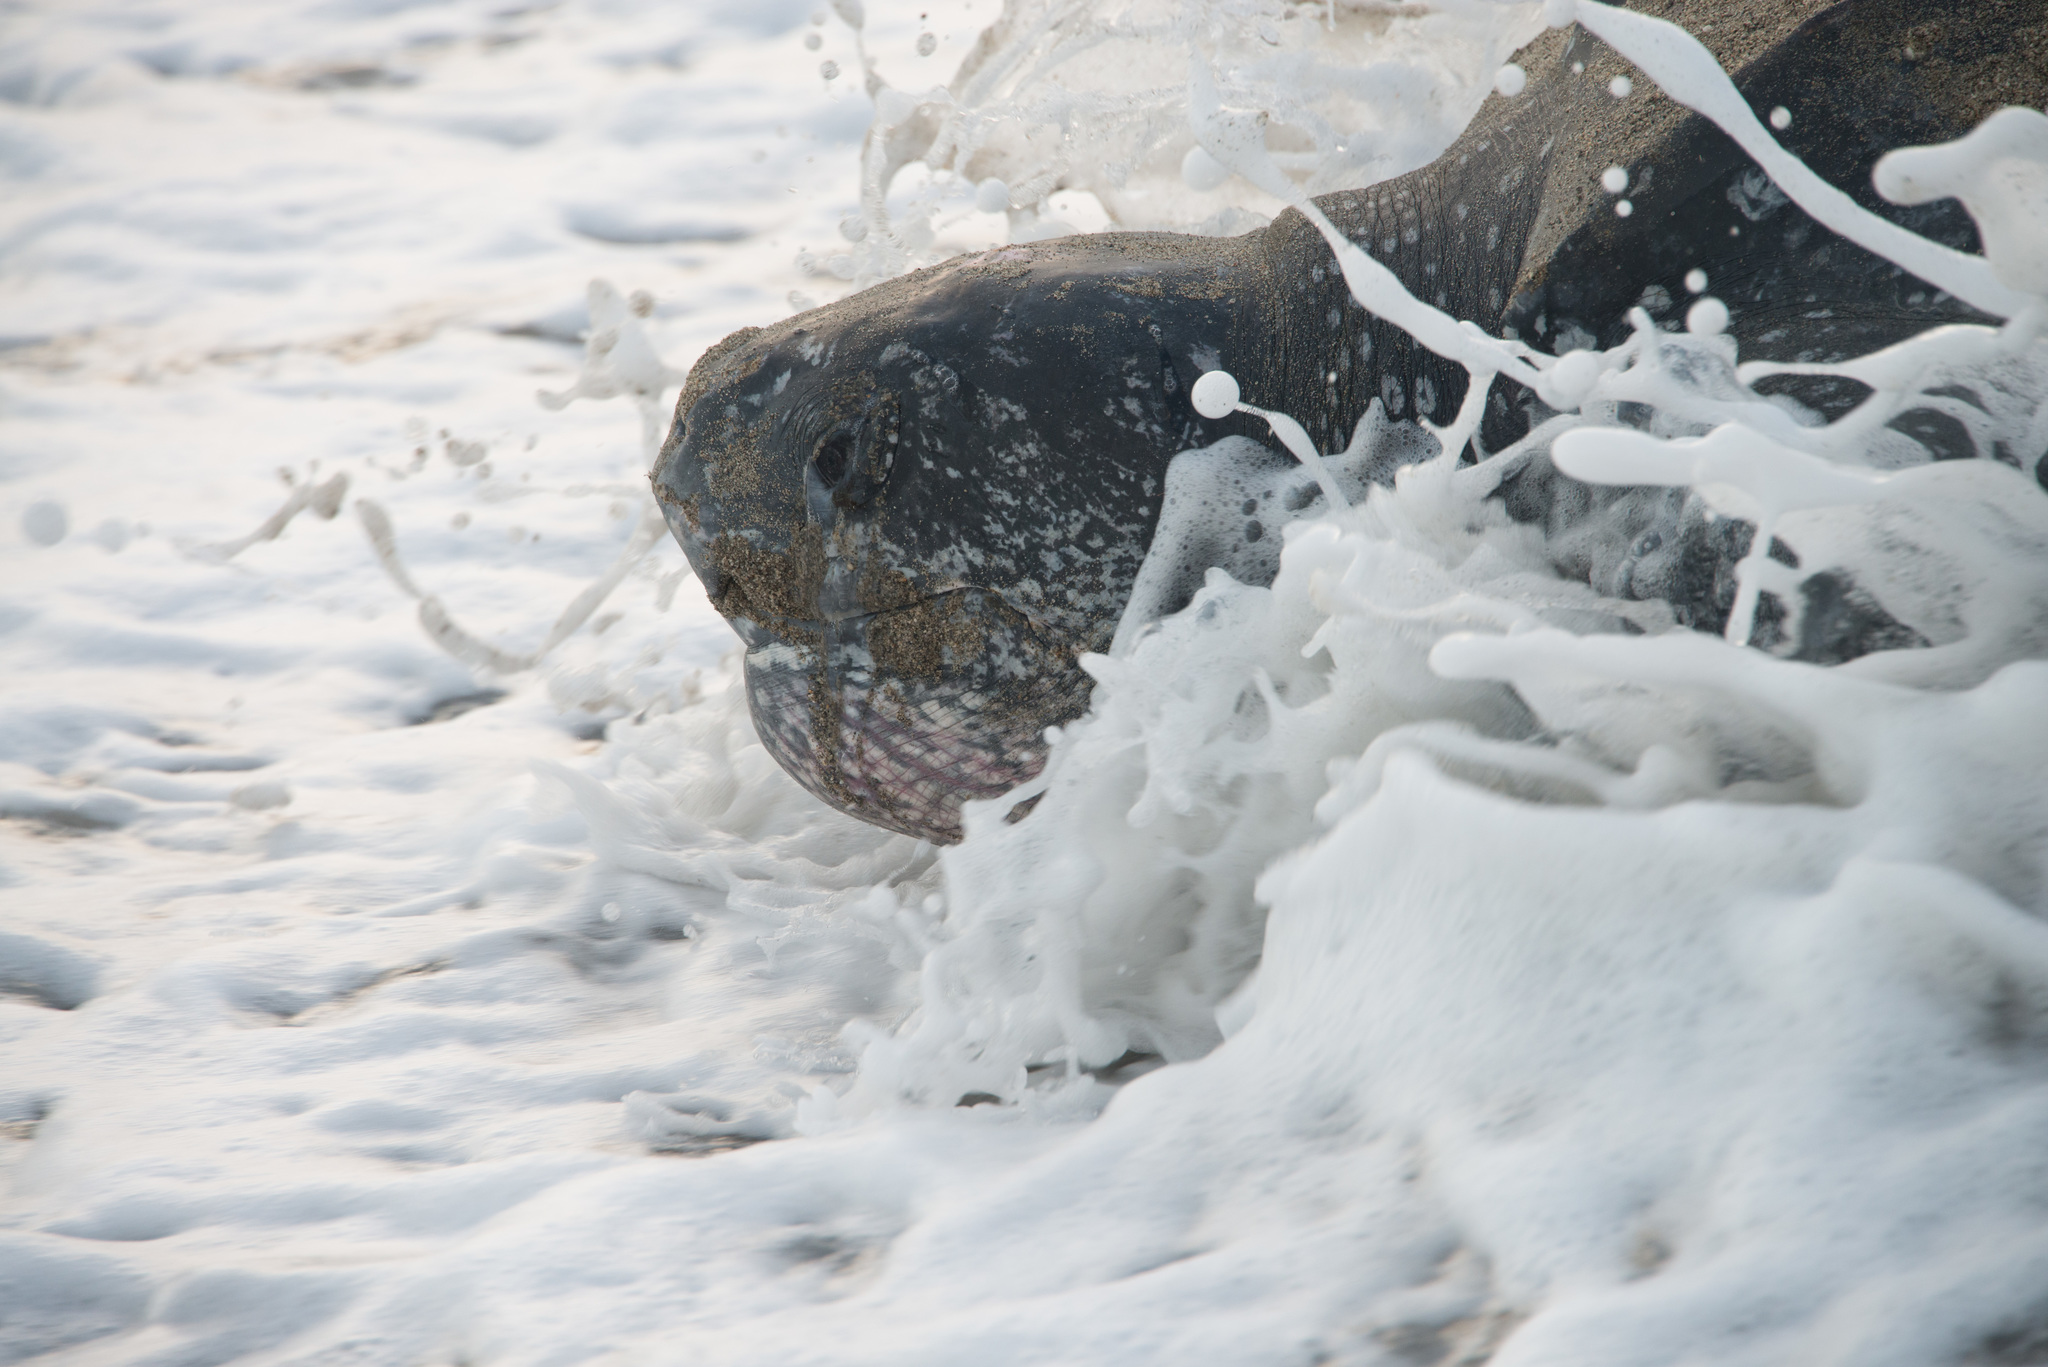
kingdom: Animalia
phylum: Chordata
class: Testudines
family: Dermochelyidae
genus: Dermochelys
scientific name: Dermochelys coriacea
